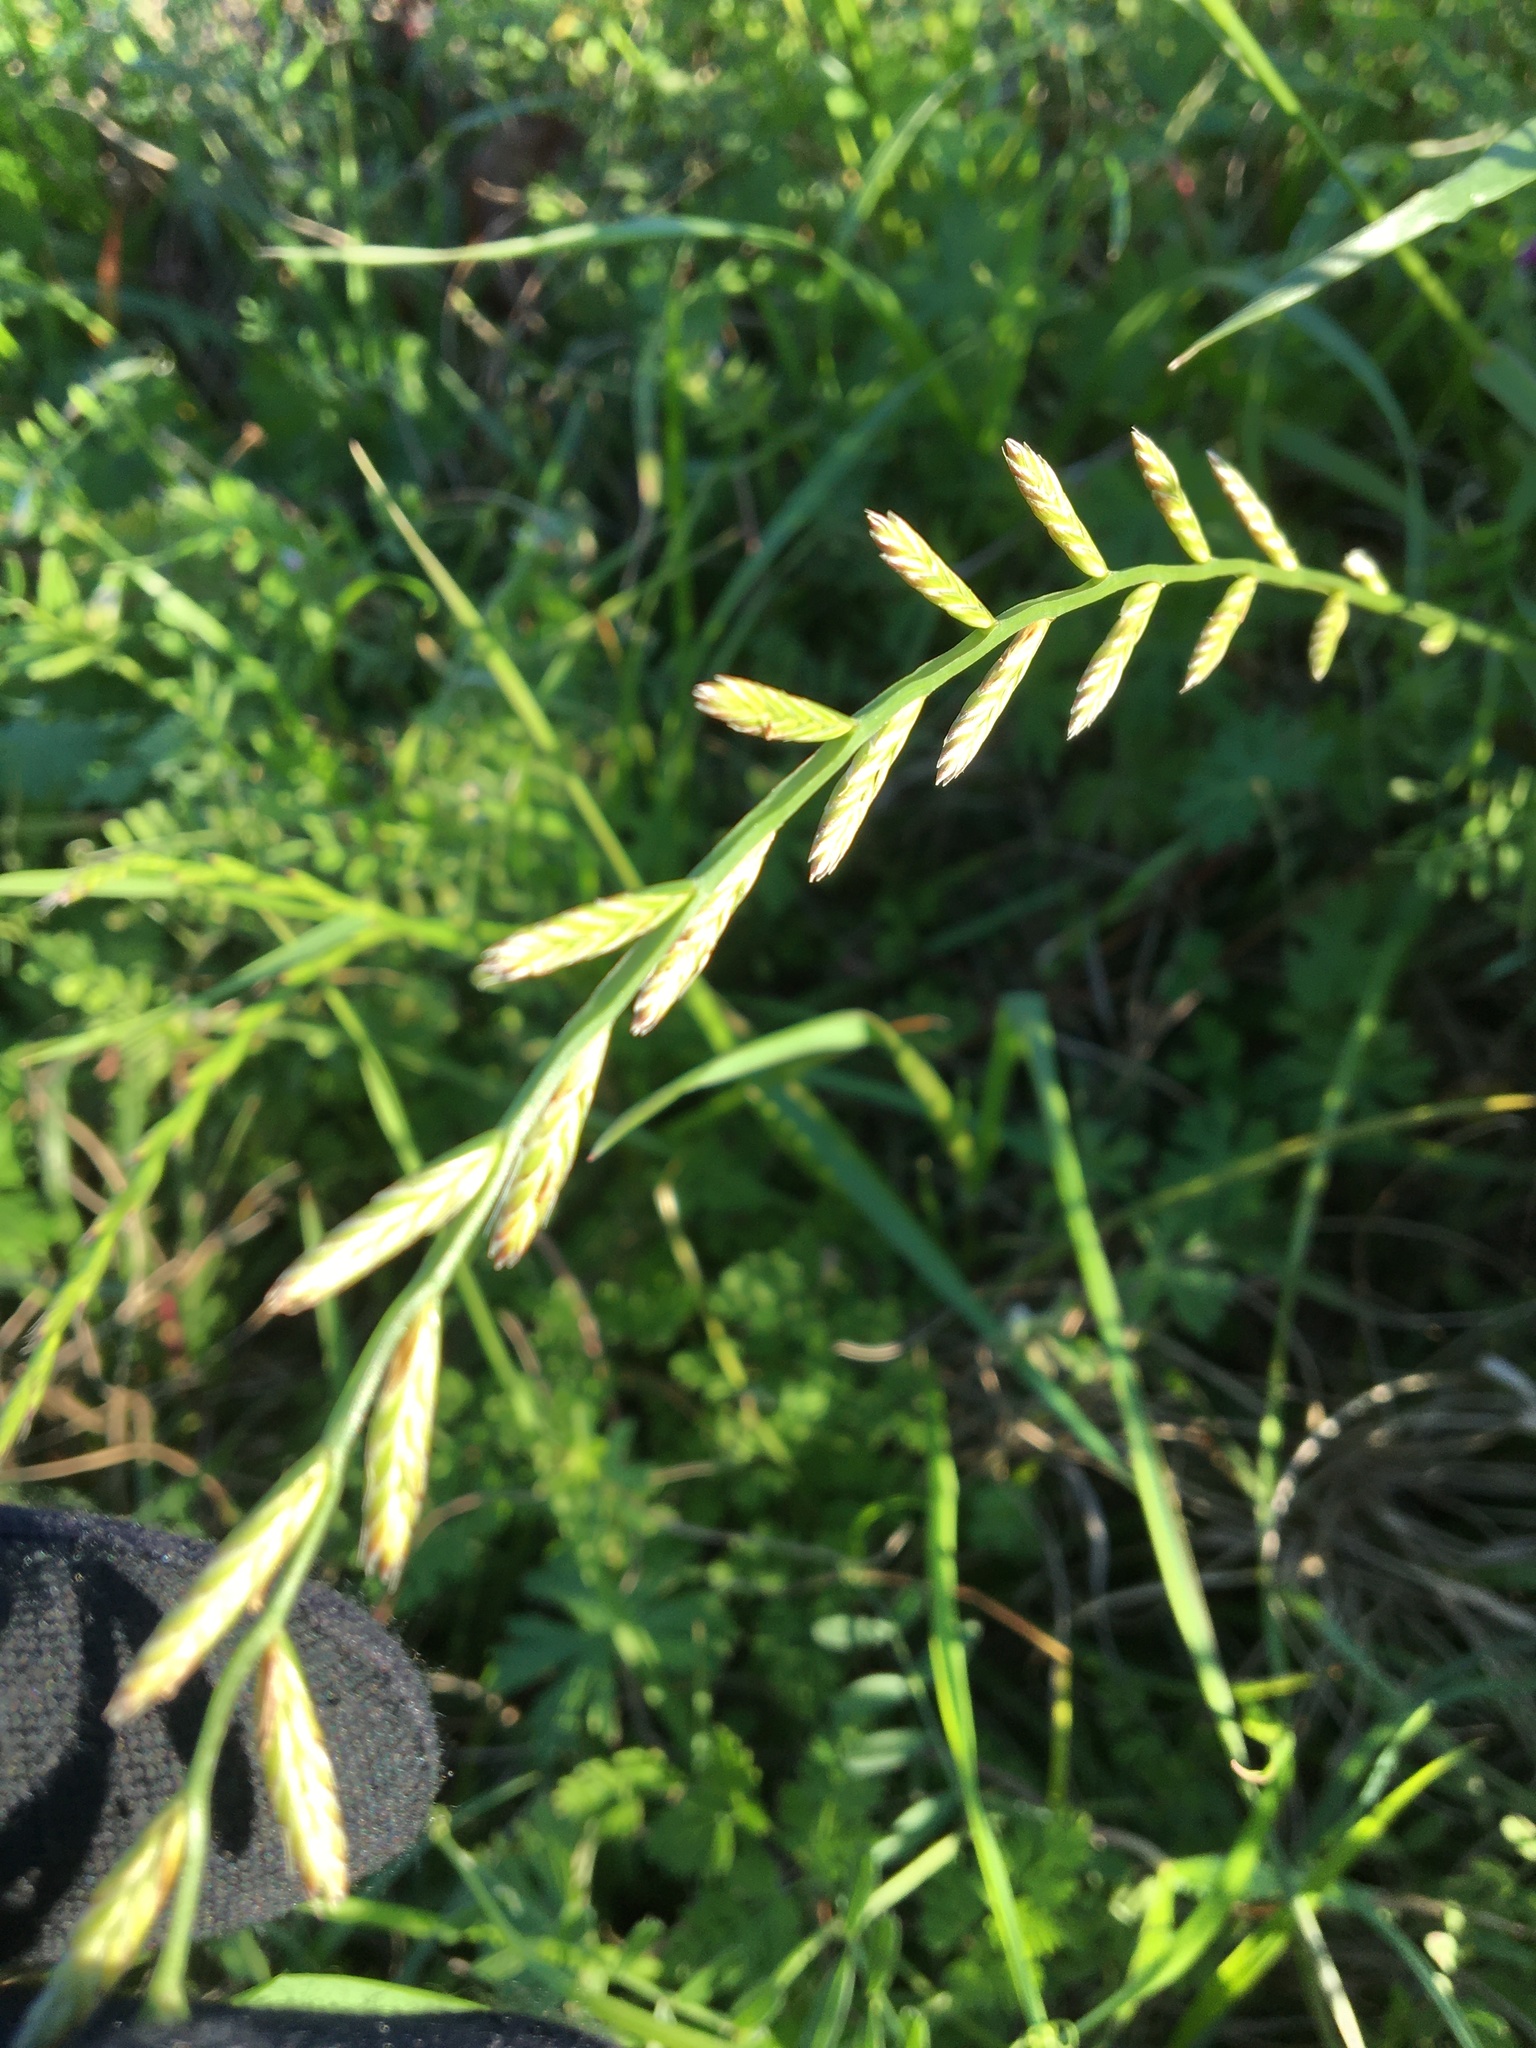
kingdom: Plantae
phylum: Tracheophyta
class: Liliopsida
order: Poales
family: Poaceae
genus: Lolium
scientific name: Lolium perenne
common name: Perennial ryegrass
